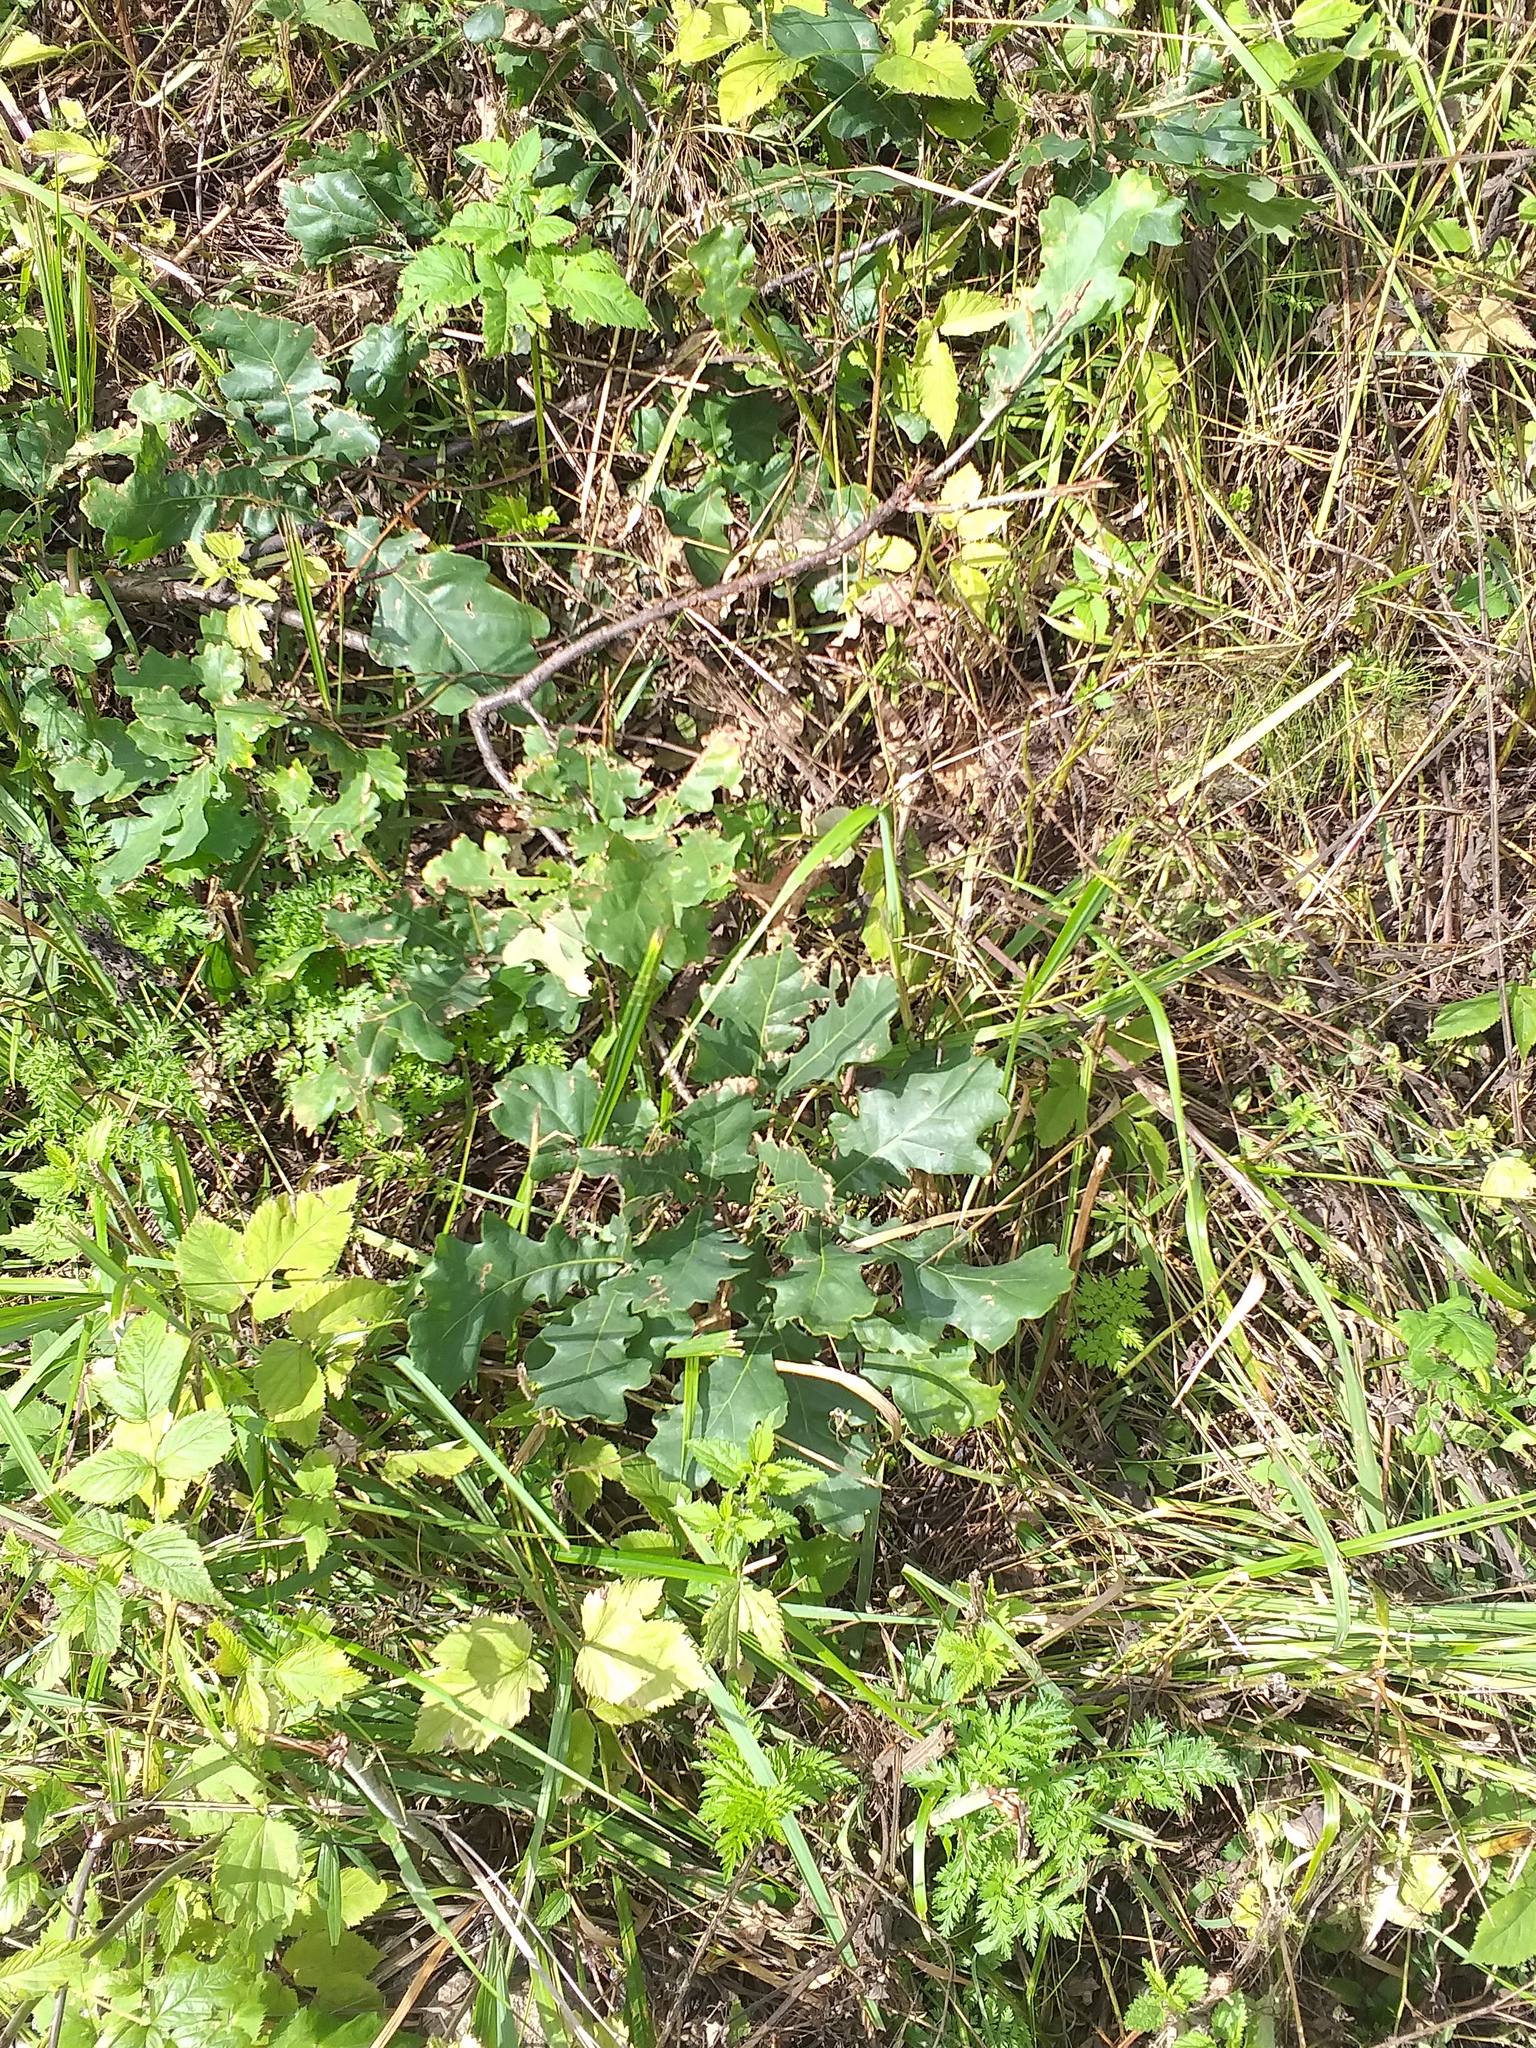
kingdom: Plantae
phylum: Tracheophyta
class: Magnoliopsida
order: Fagales
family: Fagaceae
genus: Quercus
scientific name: Quercus robur
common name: Pedunculate oak
